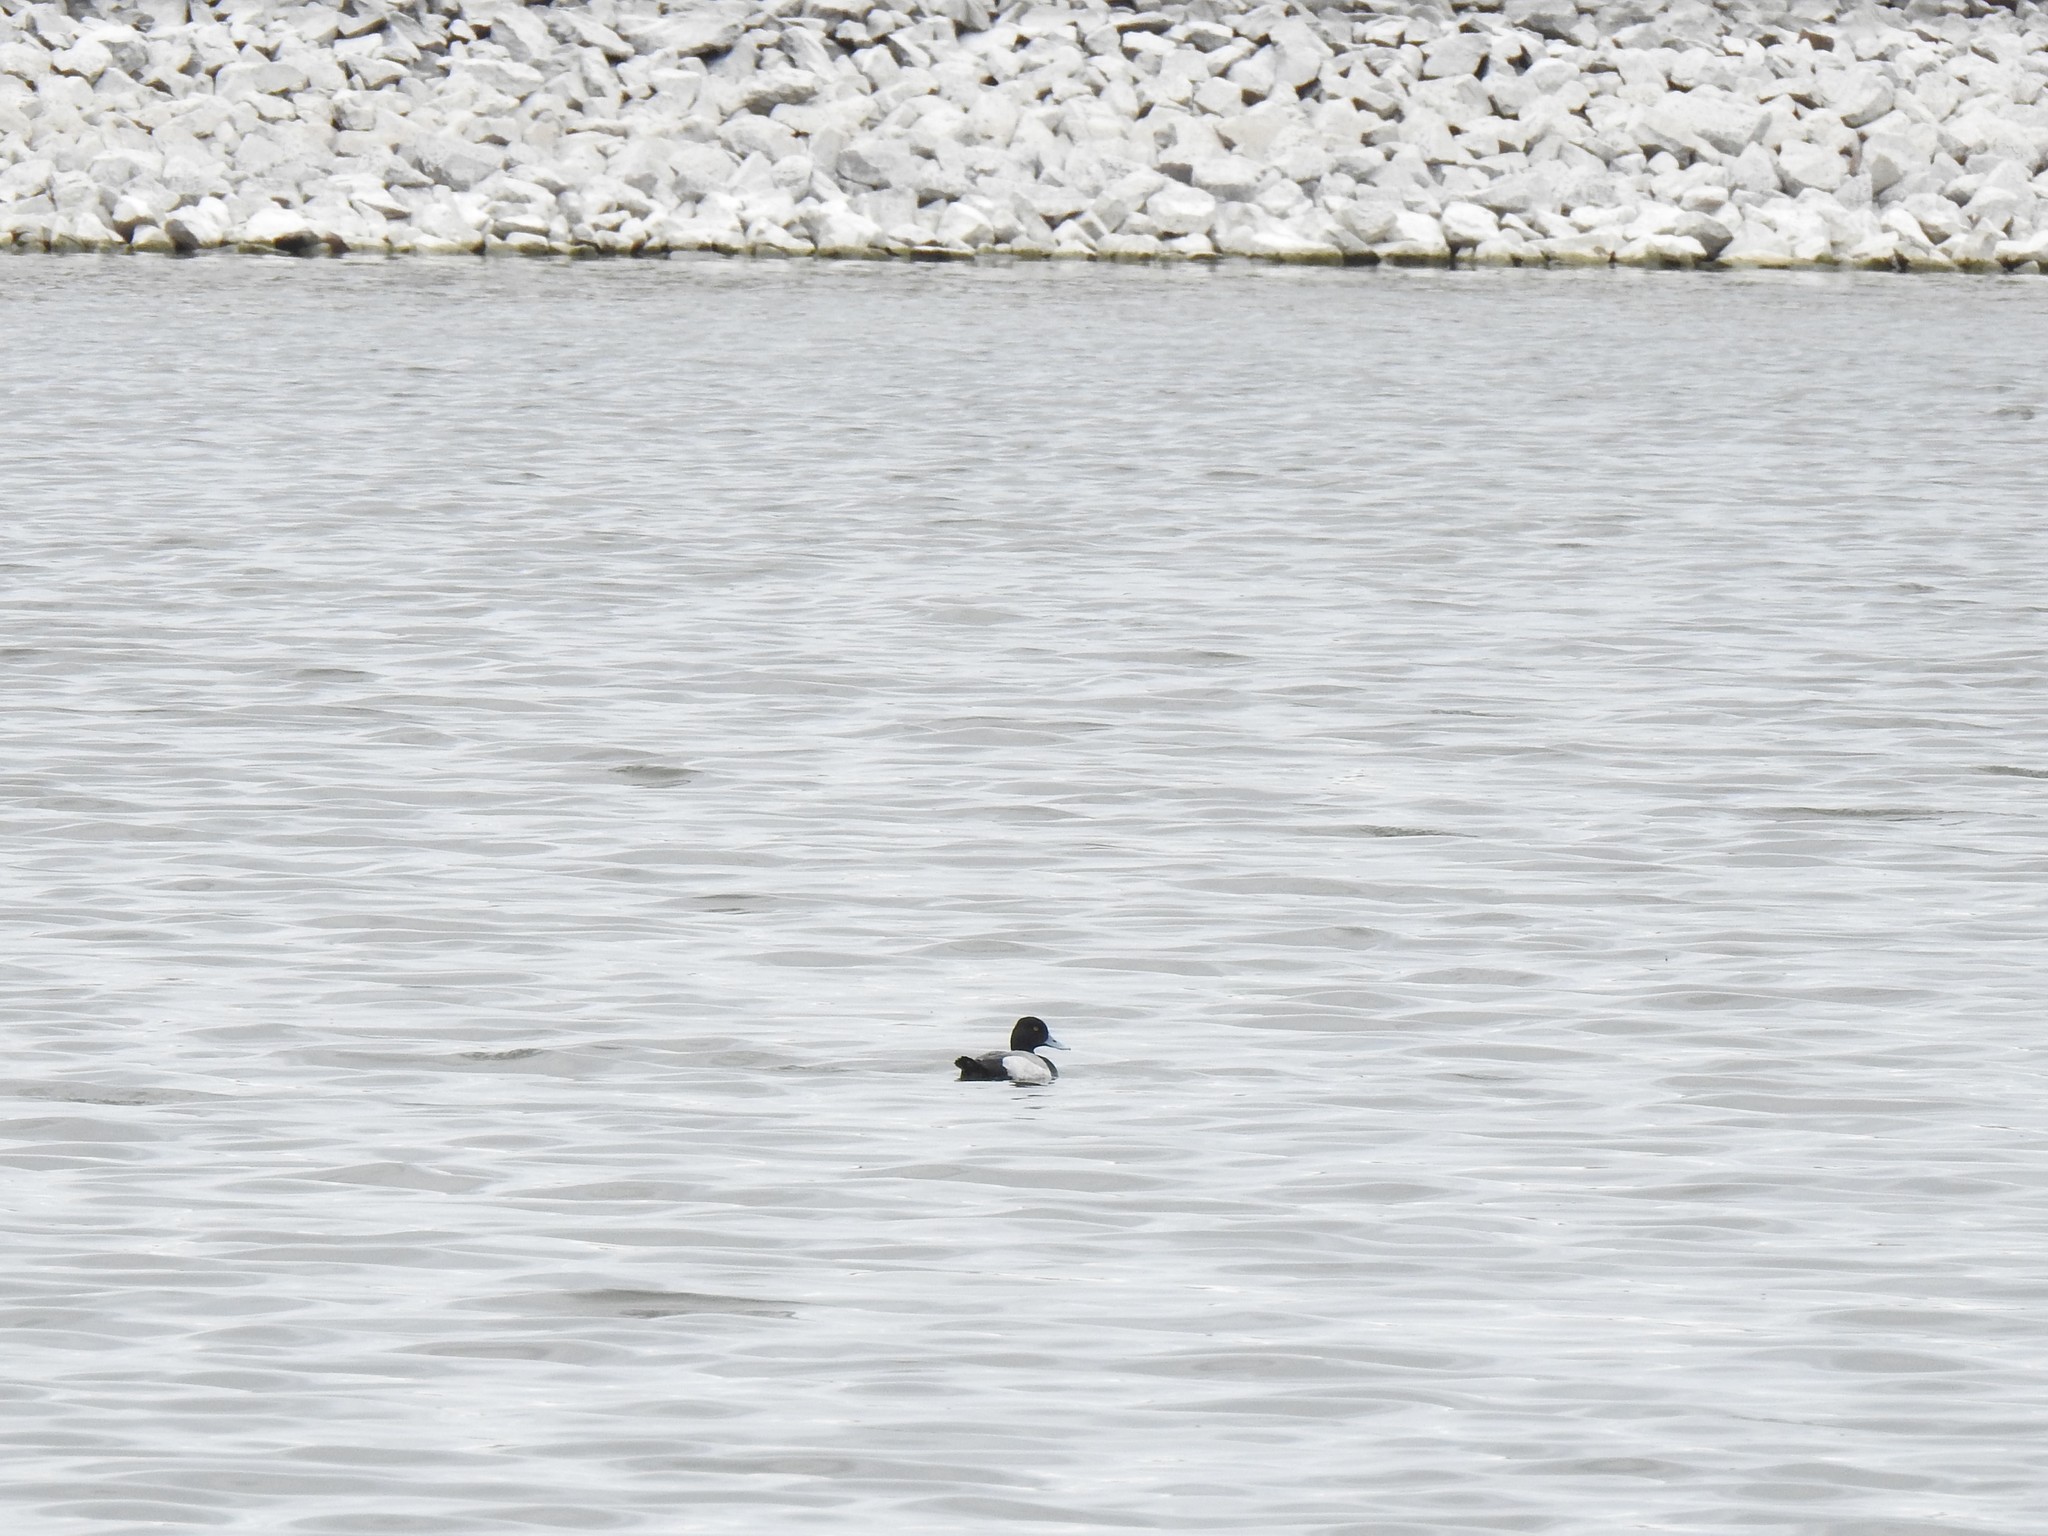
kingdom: Animalia
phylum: Chordata
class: Aves
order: Anseriformes
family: Anatidae
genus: Aythya
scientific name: Aythya affinis
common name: Lesser scaup
